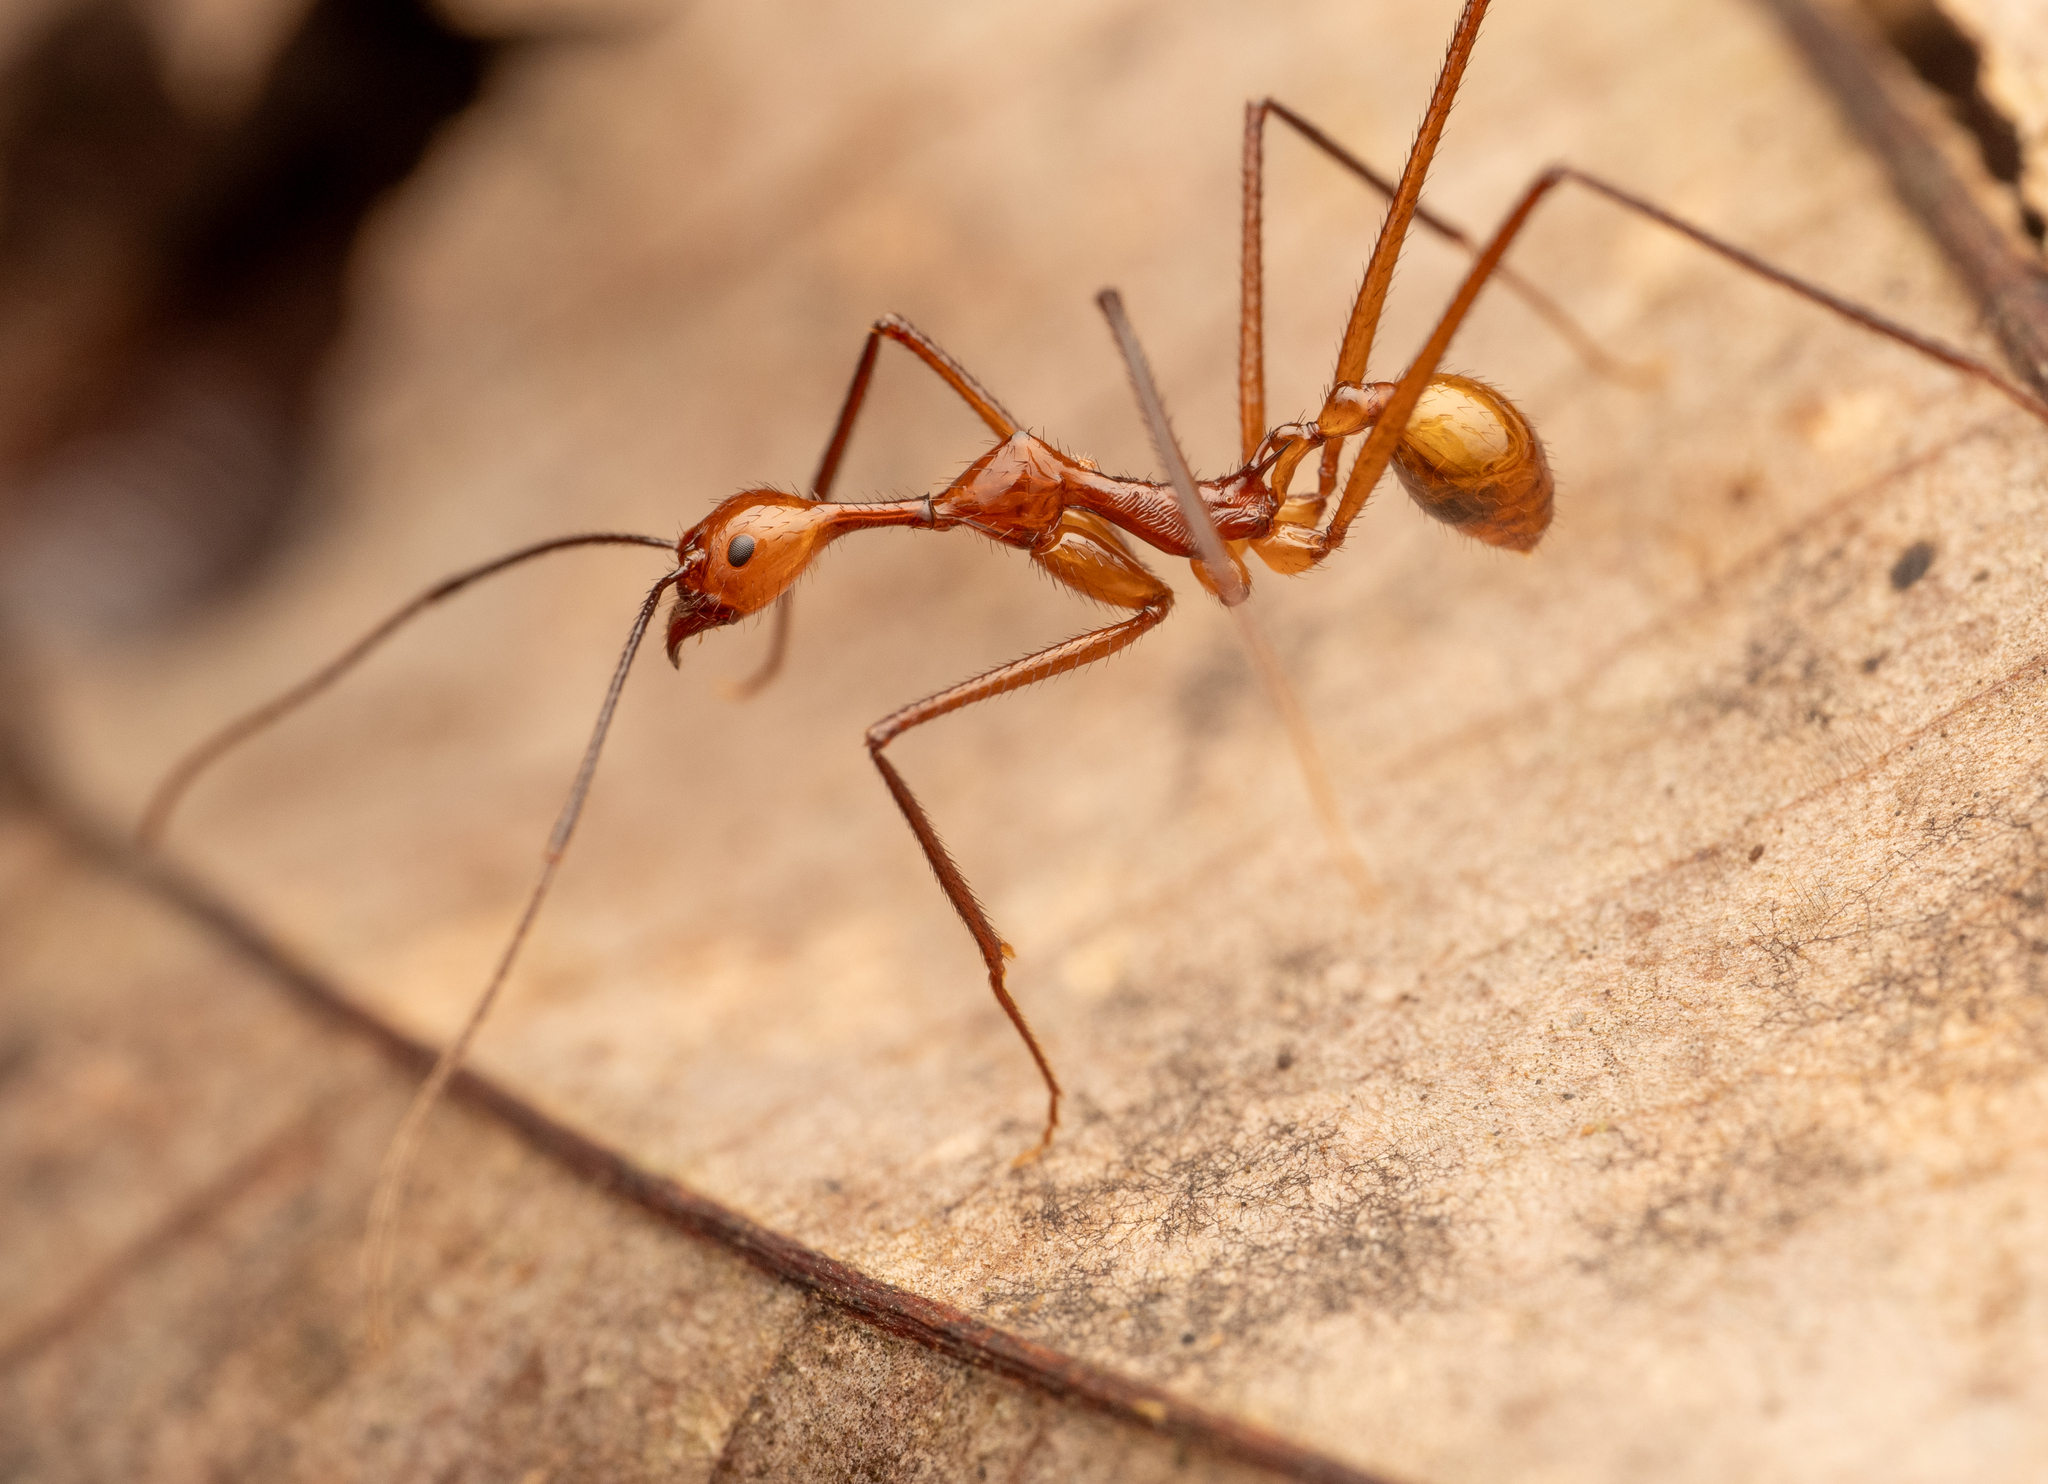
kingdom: Animalia
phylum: Arthropoda
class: Insecta
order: Hymenoptera
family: Formicidae
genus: Aphaenogaster
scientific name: Aphaenogaster dromedaria
